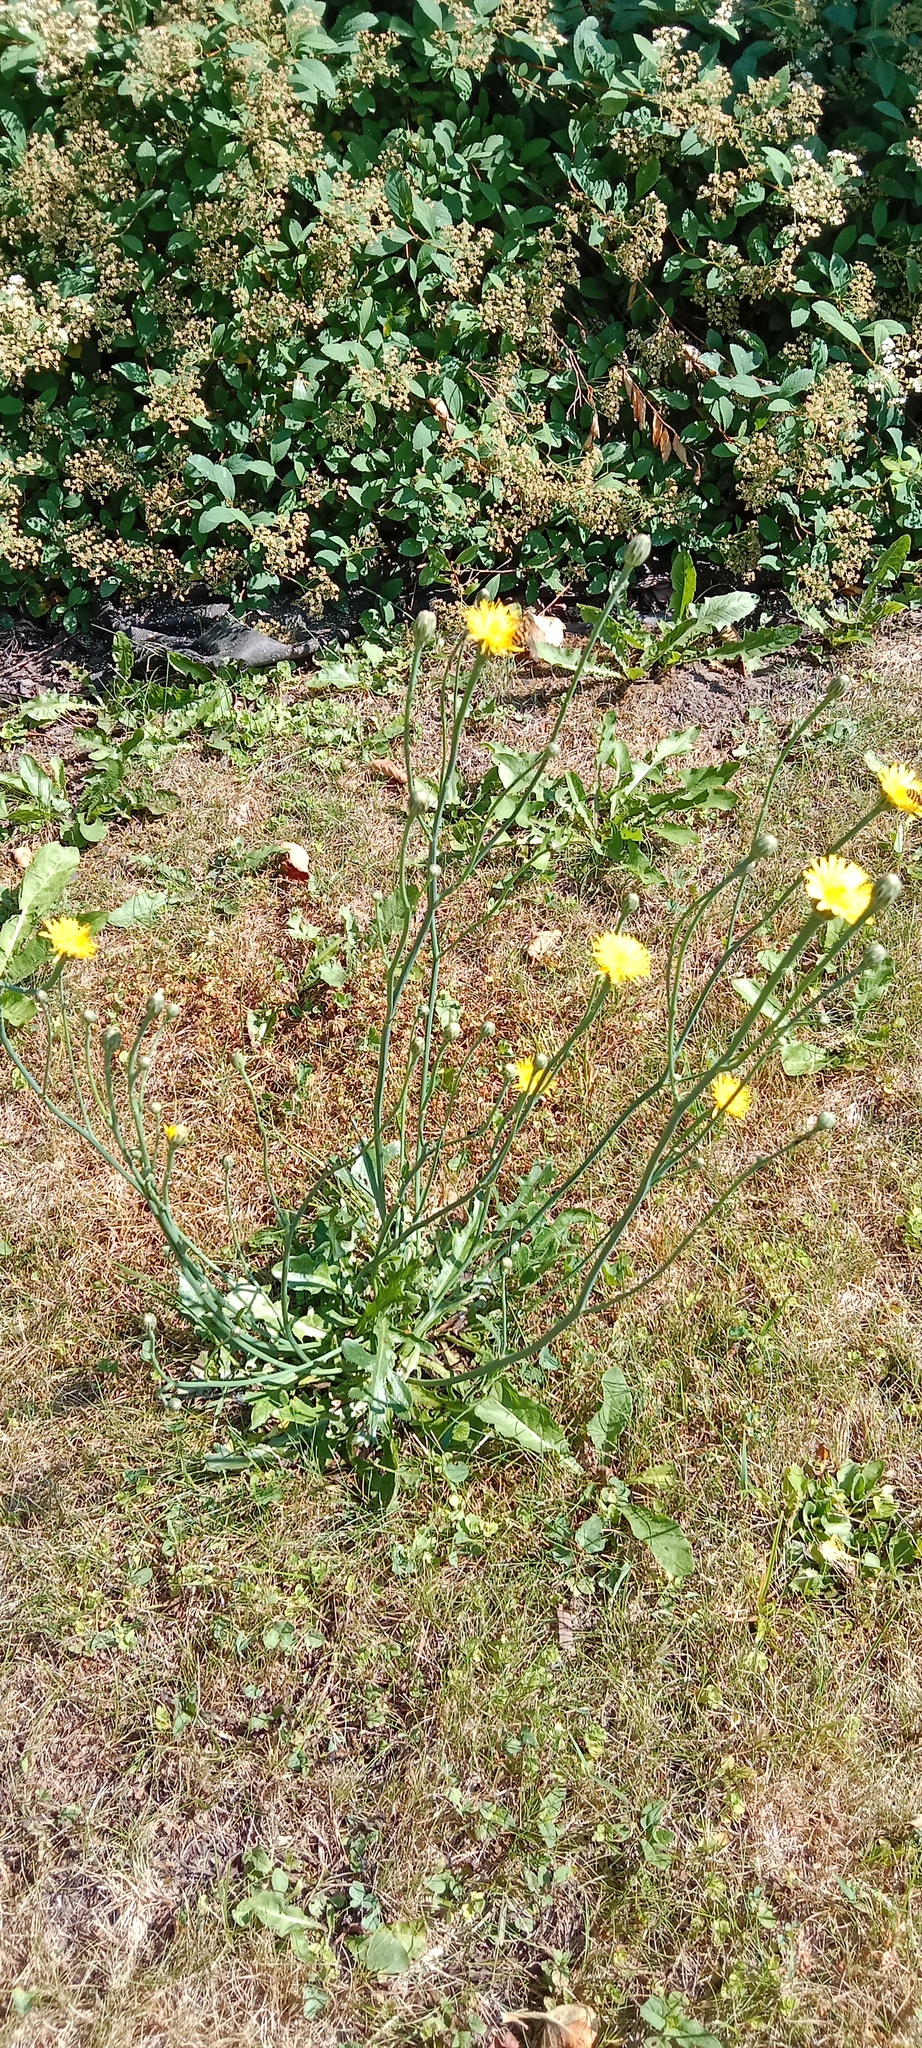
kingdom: Plantae
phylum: Tracheophyta
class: Magnoliopsida
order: Asterales
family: Asteraceae
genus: Hypochaeris
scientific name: Hypochaeris radicata
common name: Flatweed
